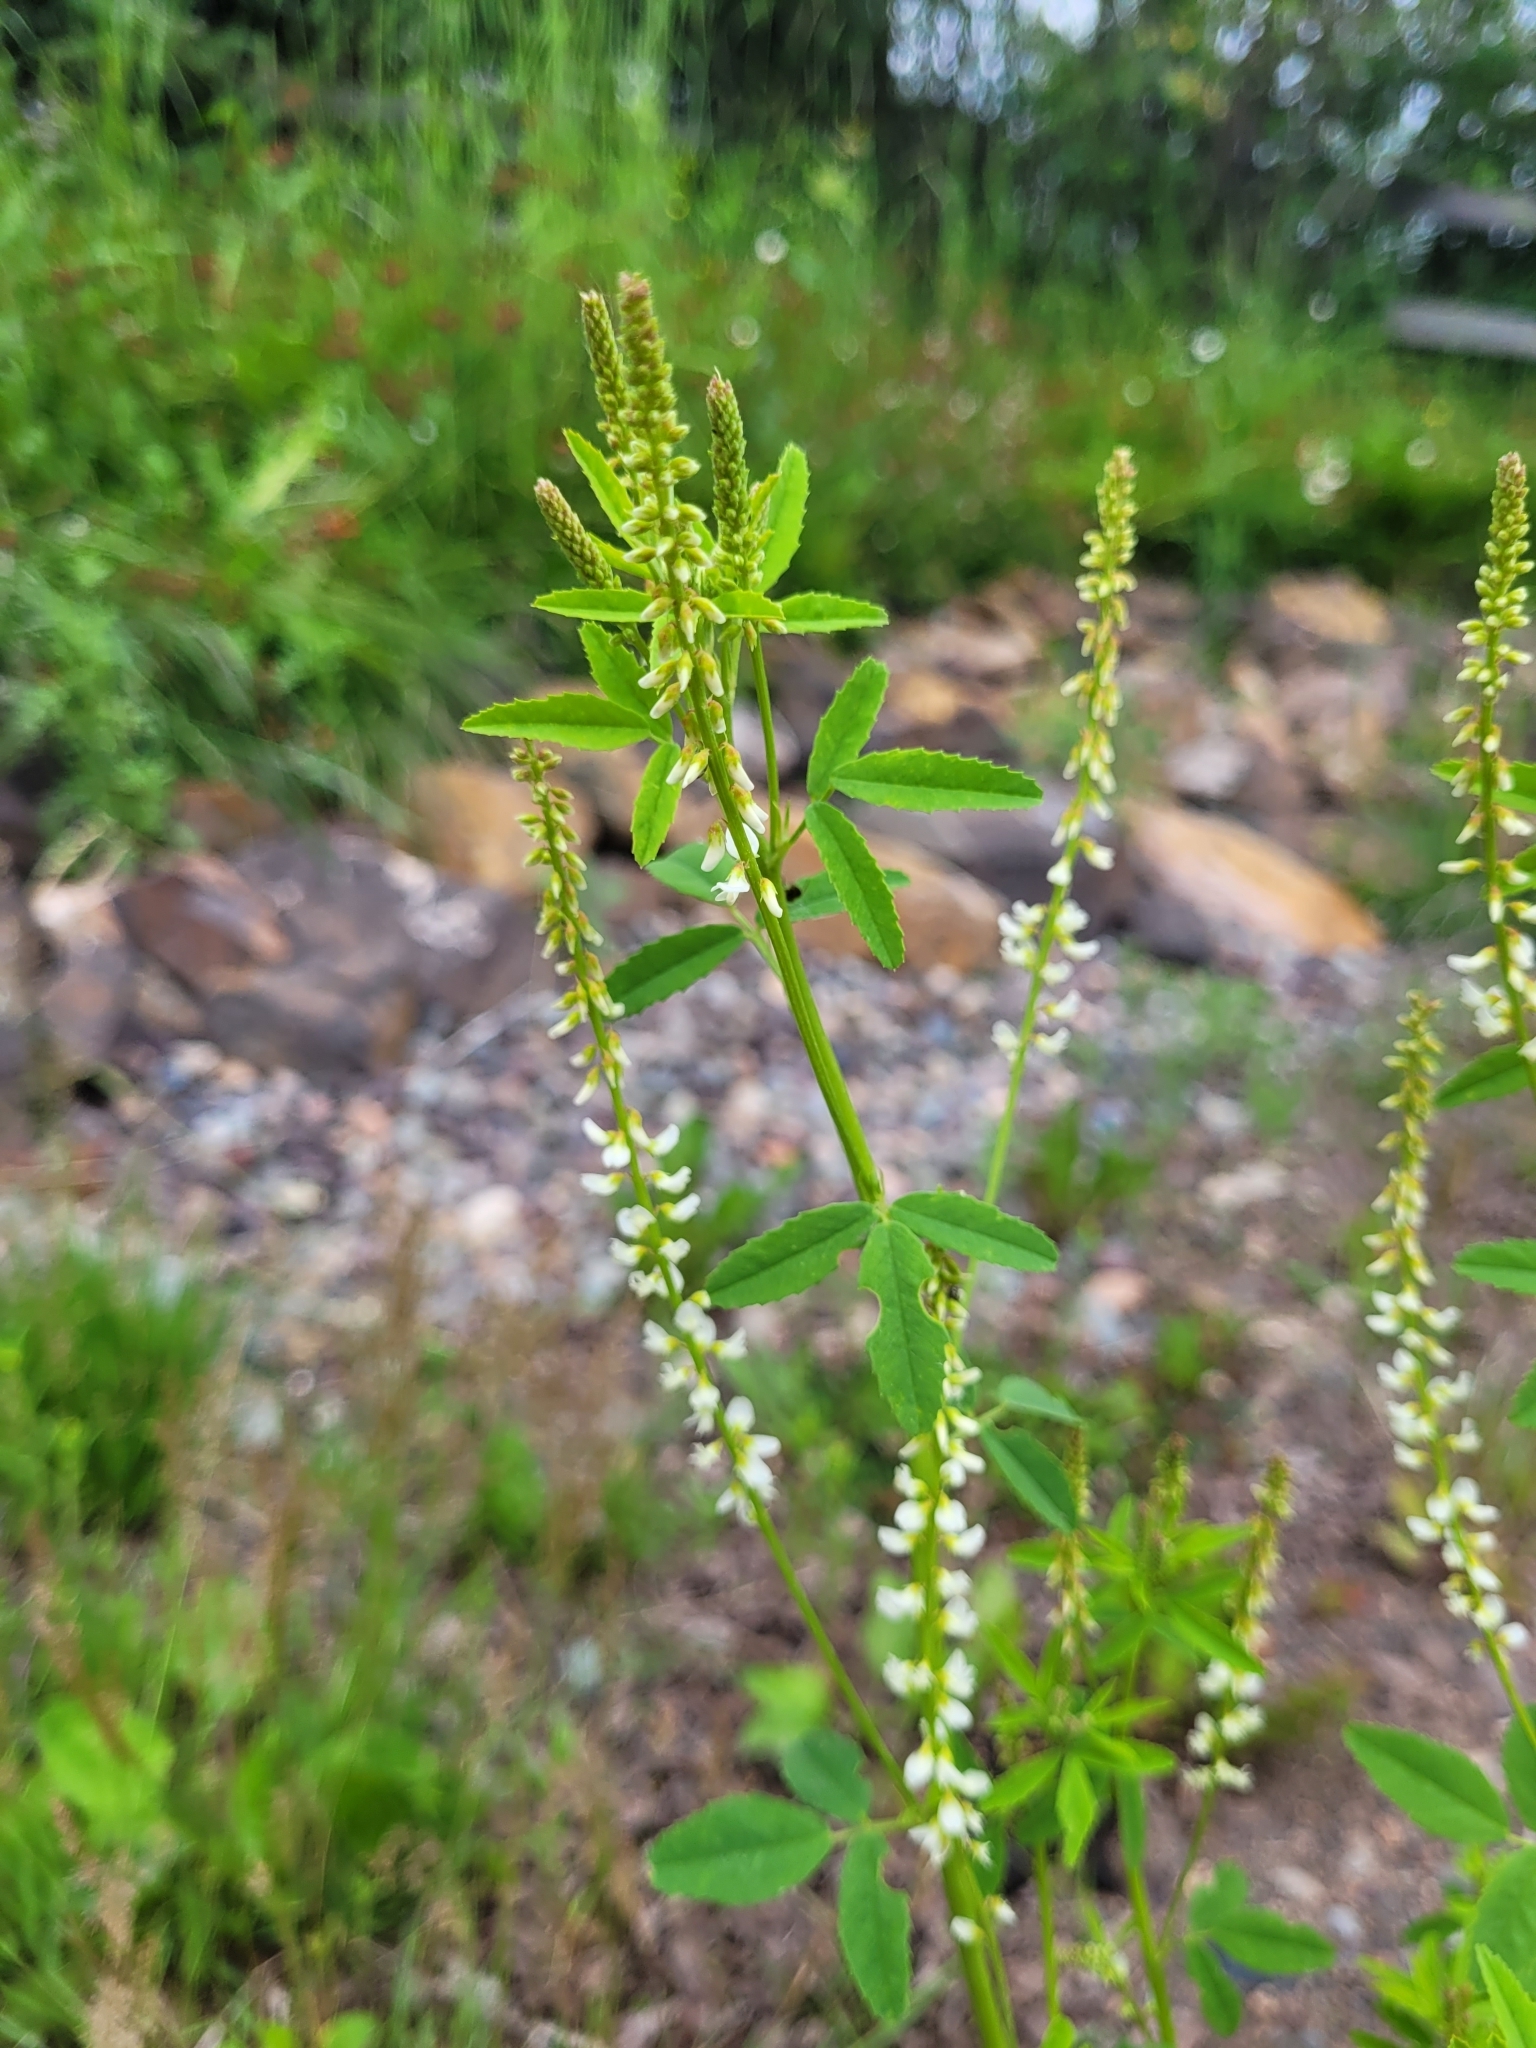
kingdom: Plantae
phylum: Tracheophyta
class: Magnoliopsida
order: Fabales
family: Fabaceae
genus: Melilotus
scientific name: Melilotus albus
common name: White melilot
